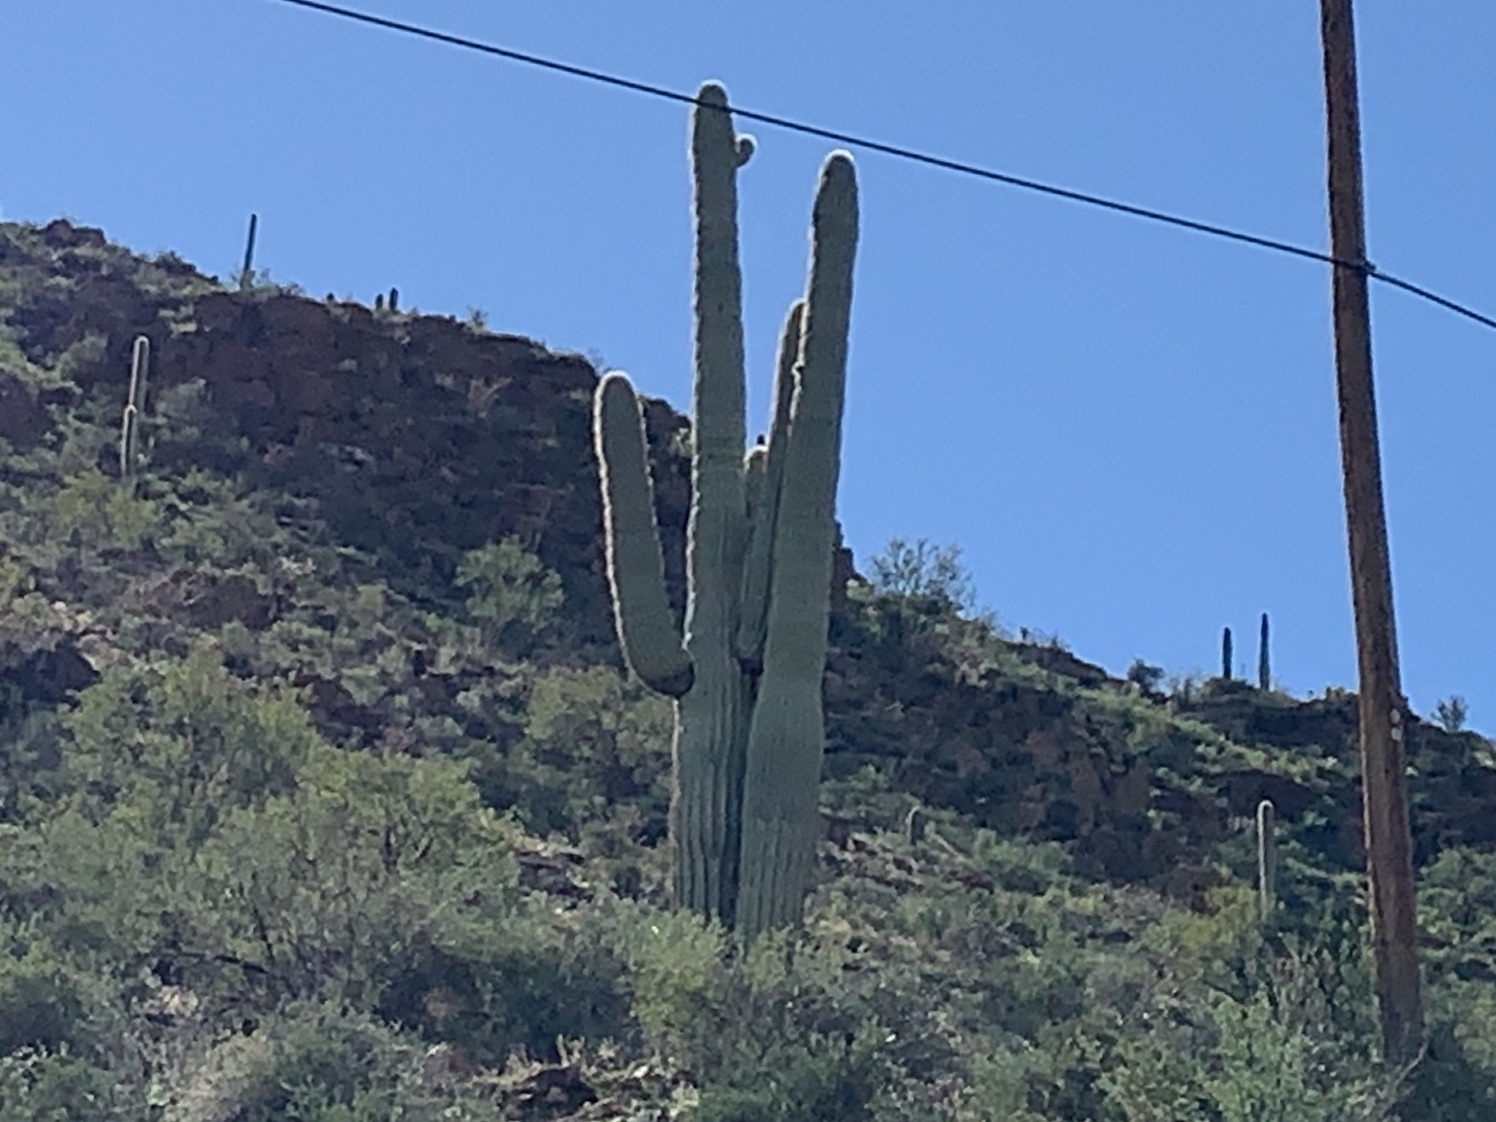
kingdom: Plantae
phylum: Tracheophyta
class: Magnoliopsida
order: Caryophyllales
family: Cactaceae
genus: Carnegiea
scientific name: Carnegiea gigantea
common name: Saguaro
